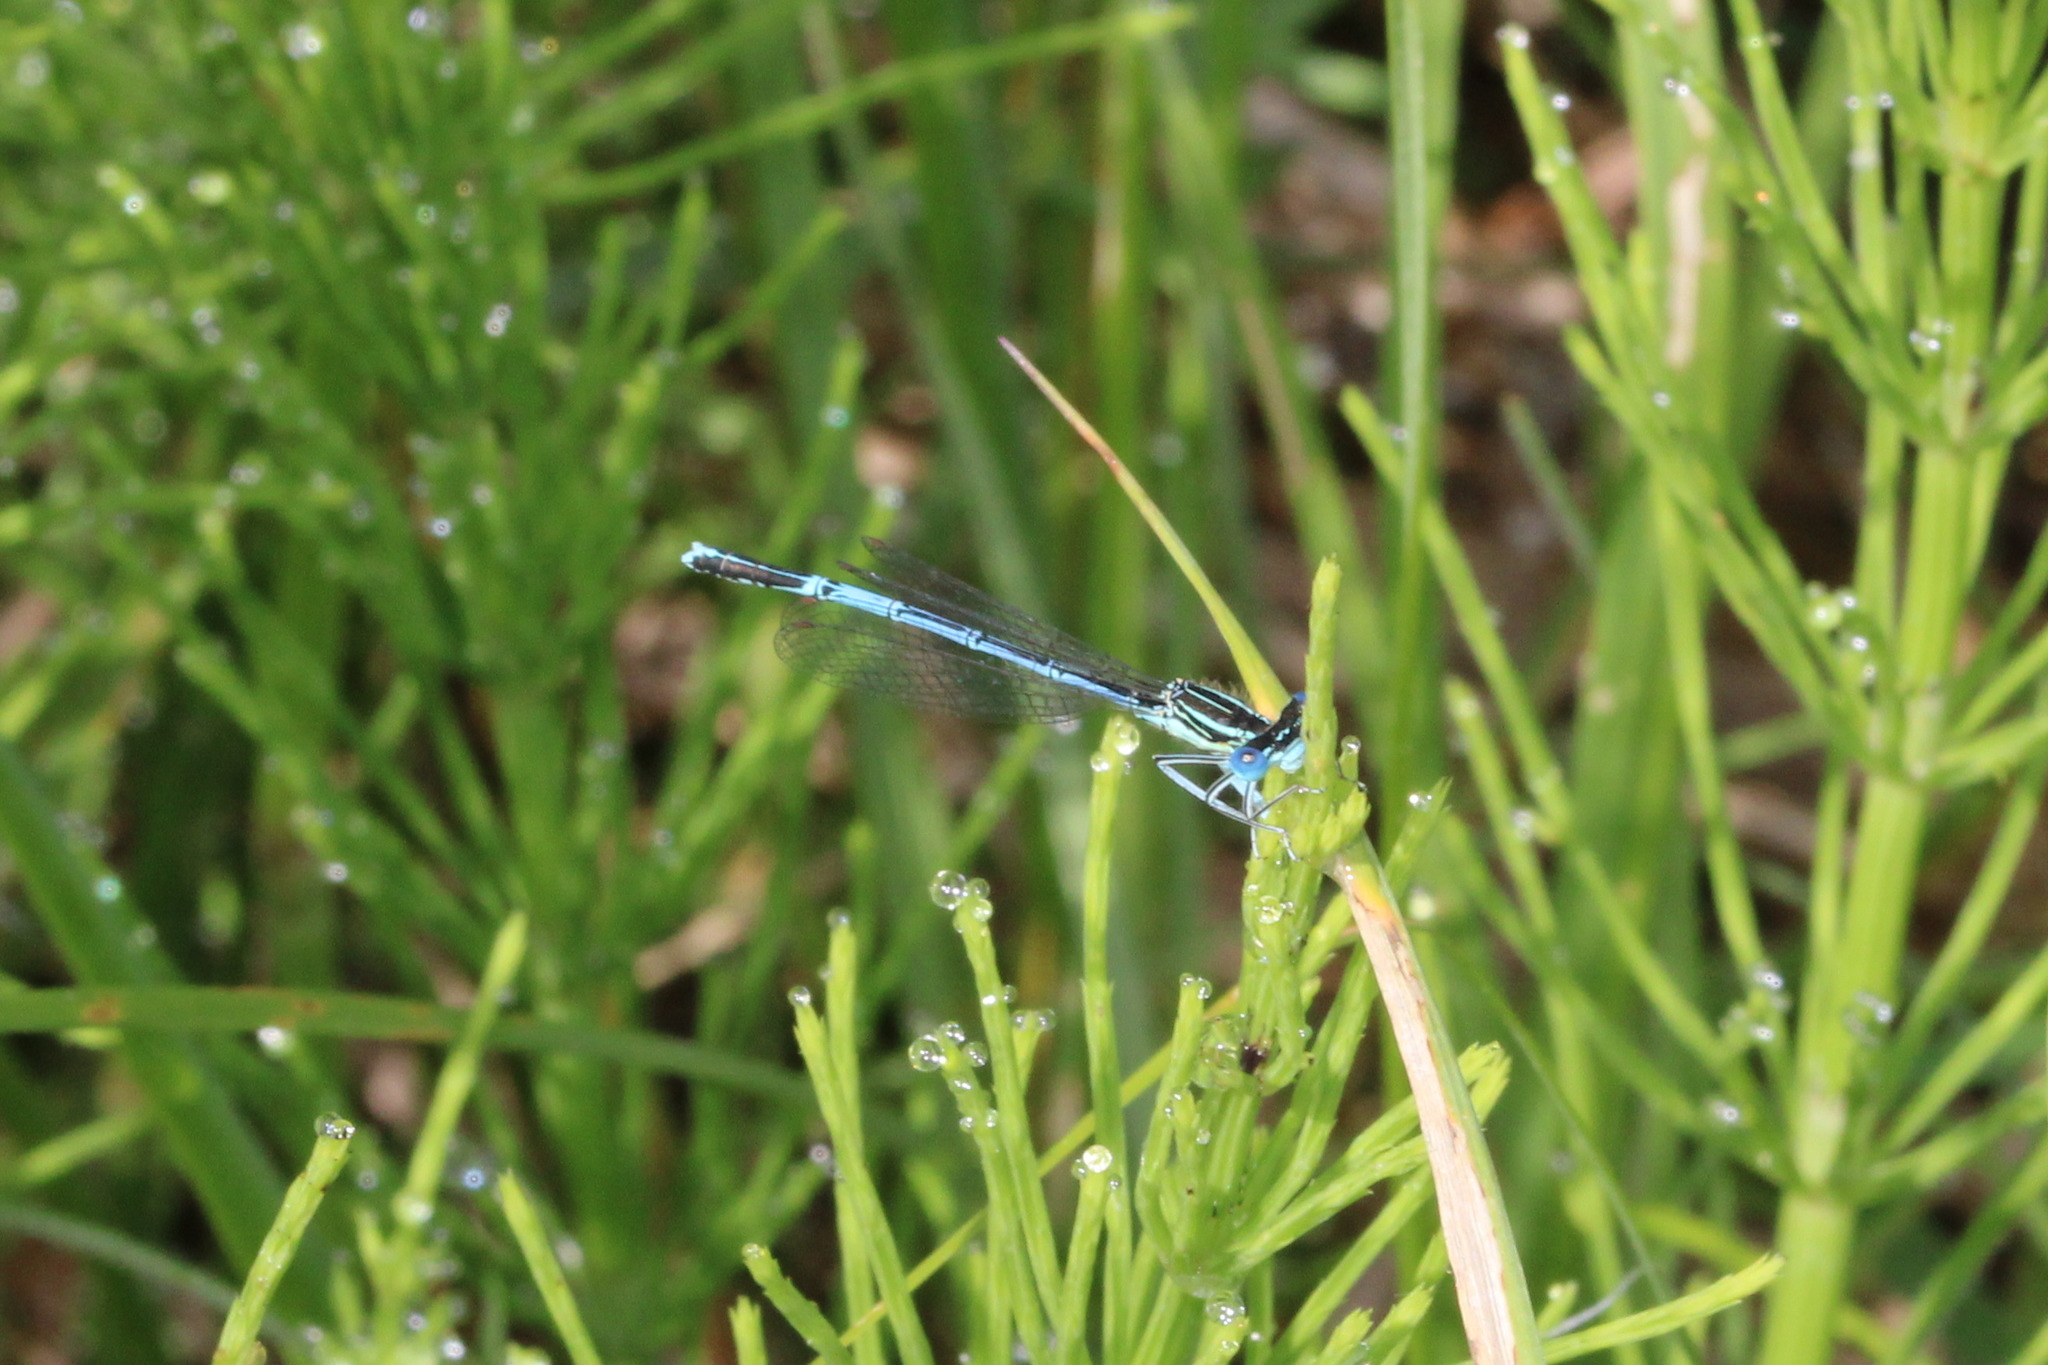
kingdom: Animalia
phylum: Arthropoda
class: Insecta
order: Odonata
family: Platycnemididae
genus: Platycnemis
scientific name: Platycnemis pennipes
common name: White-legged damselfly
